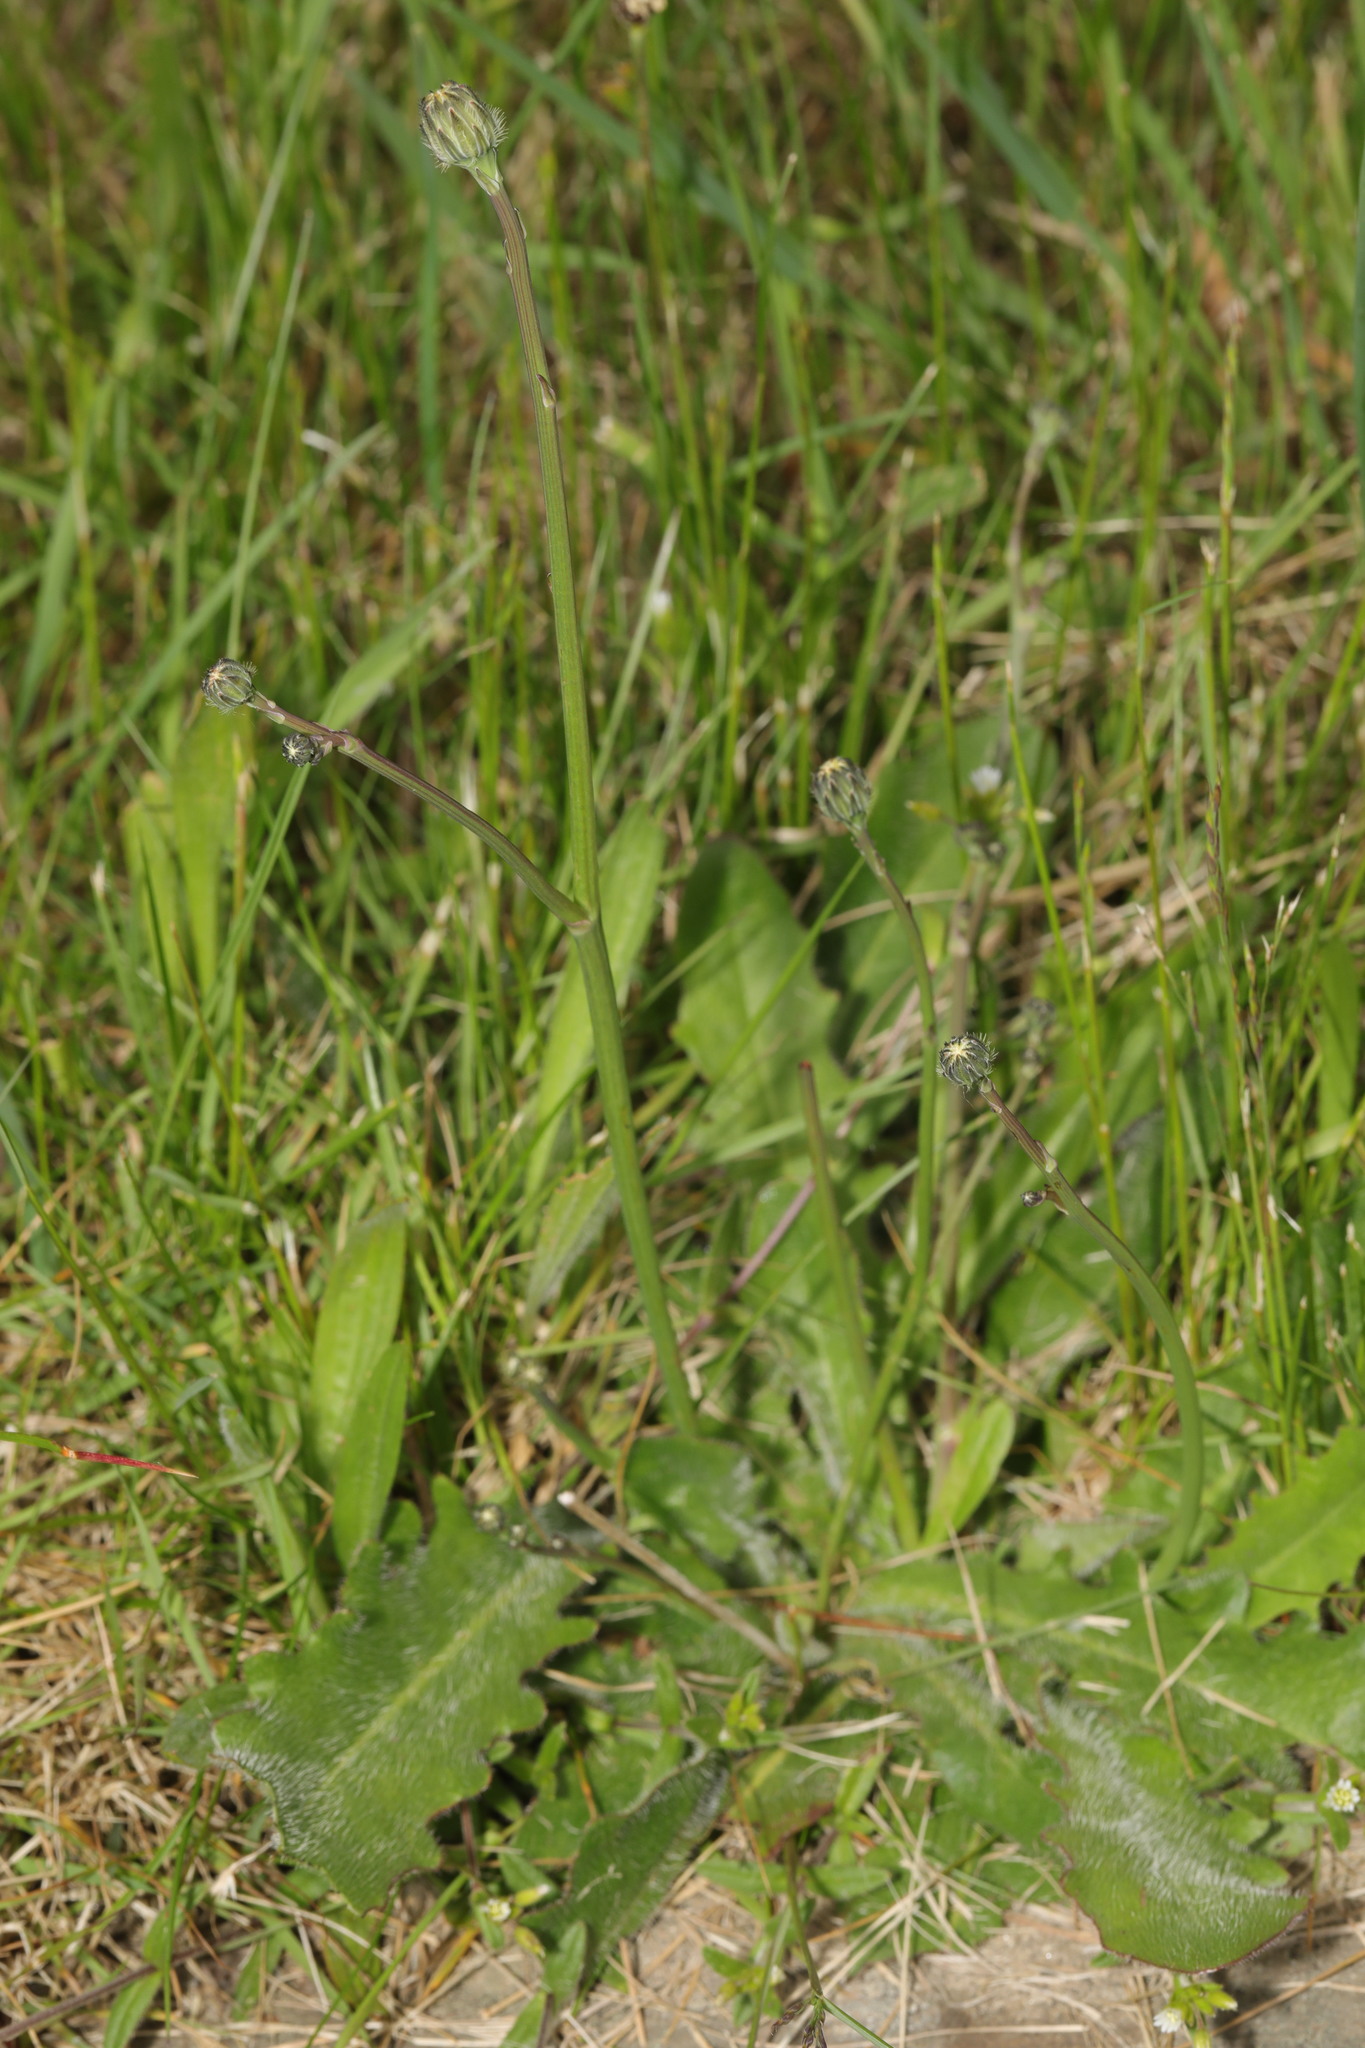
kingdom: Plantae
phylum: Tracheophyta
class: Magnoliopsida
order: Asterales
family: Asteraceae
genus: Hypochaeris
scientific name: Hypochaeris radicata
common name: Flatweed
